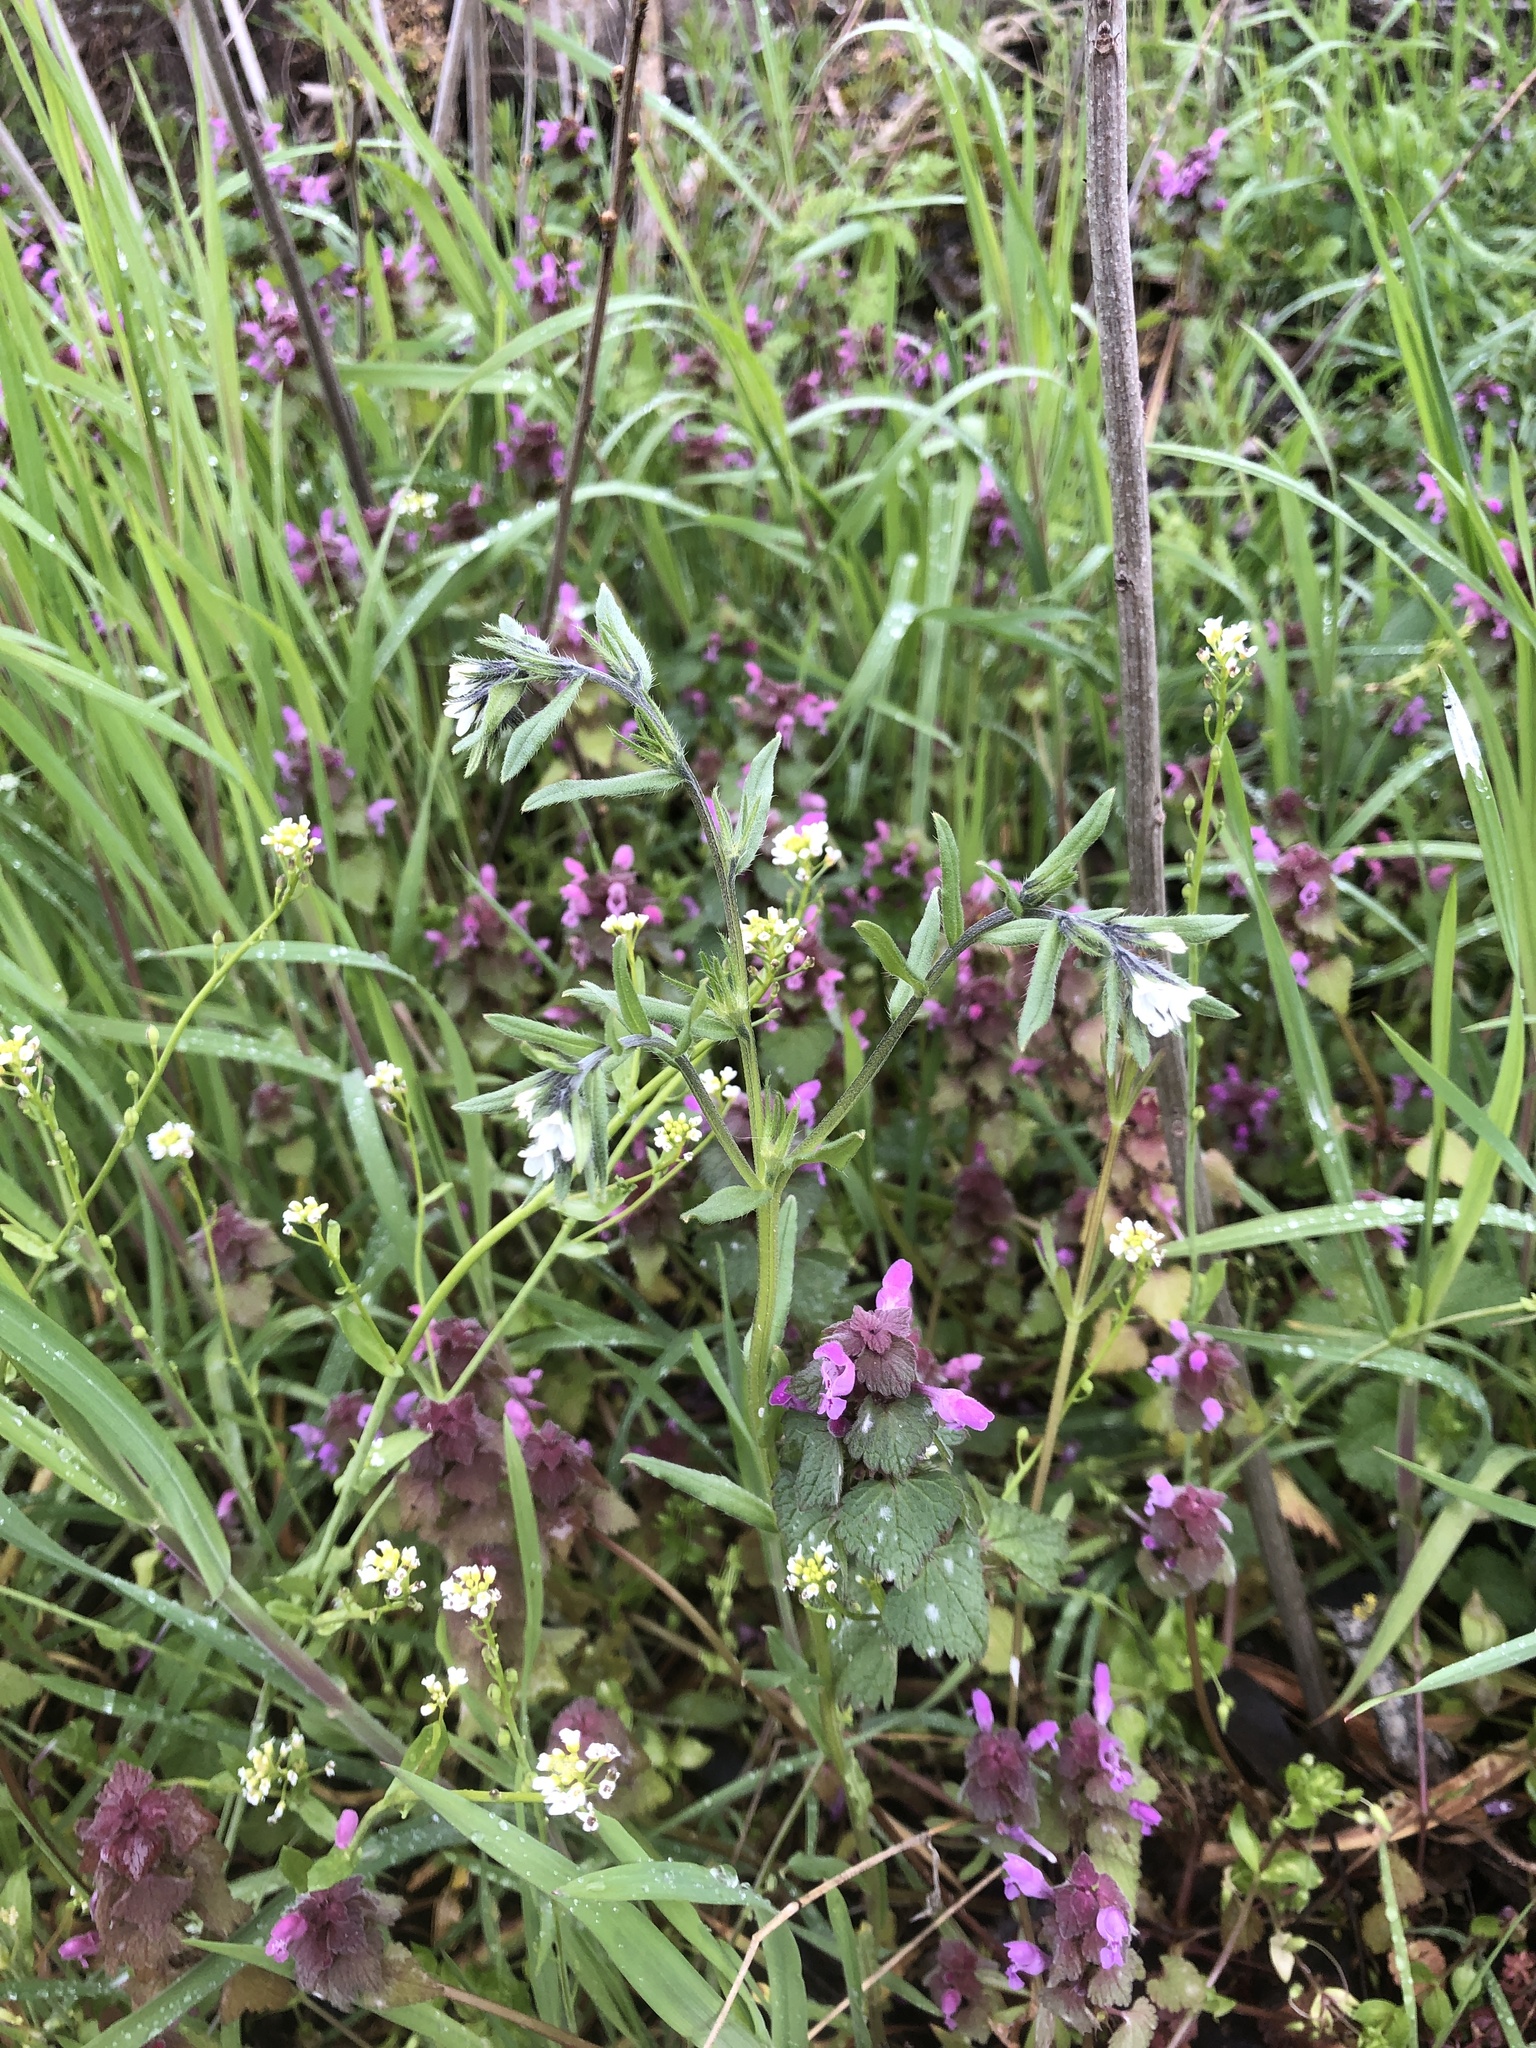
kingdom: Plantae
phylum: Tracheophyta
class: Magnoliopsida
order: Boraginales
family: Boraginaceae
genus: Buglossoides
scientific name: Buglossoides arvensis
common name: Corn gromwell
